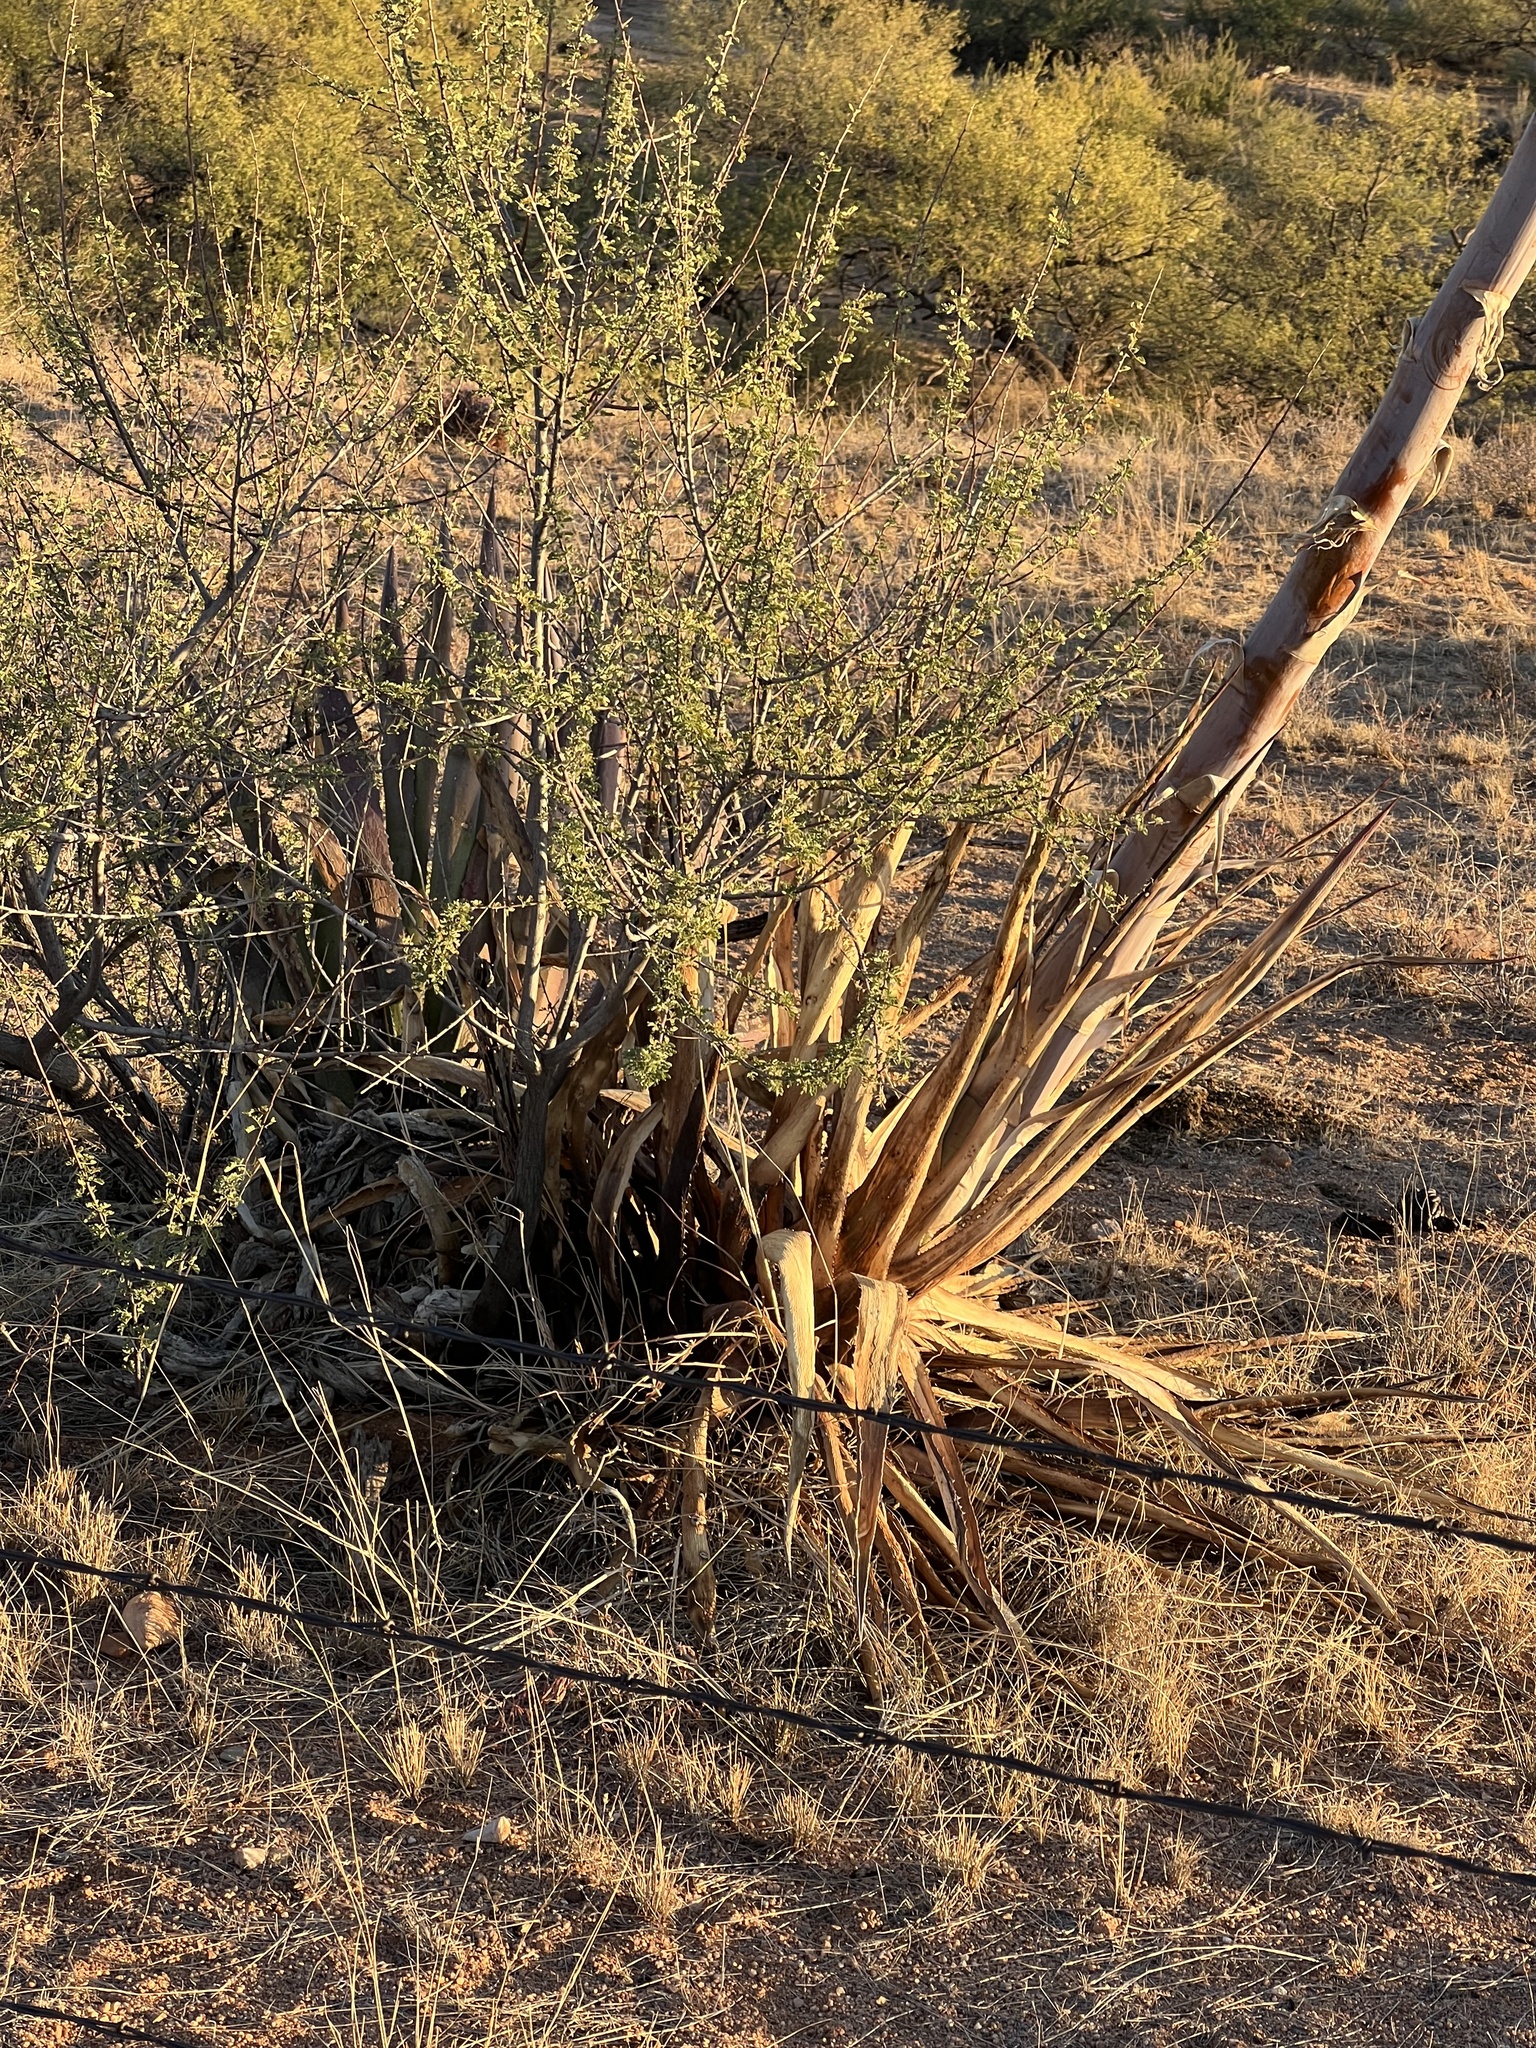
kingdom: Plantae
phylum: Tracheophyta
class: Liliopsida
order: Asparagales
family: Asparagaceae
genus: Agave
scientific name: Agave palmeri
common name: Palmer agave
